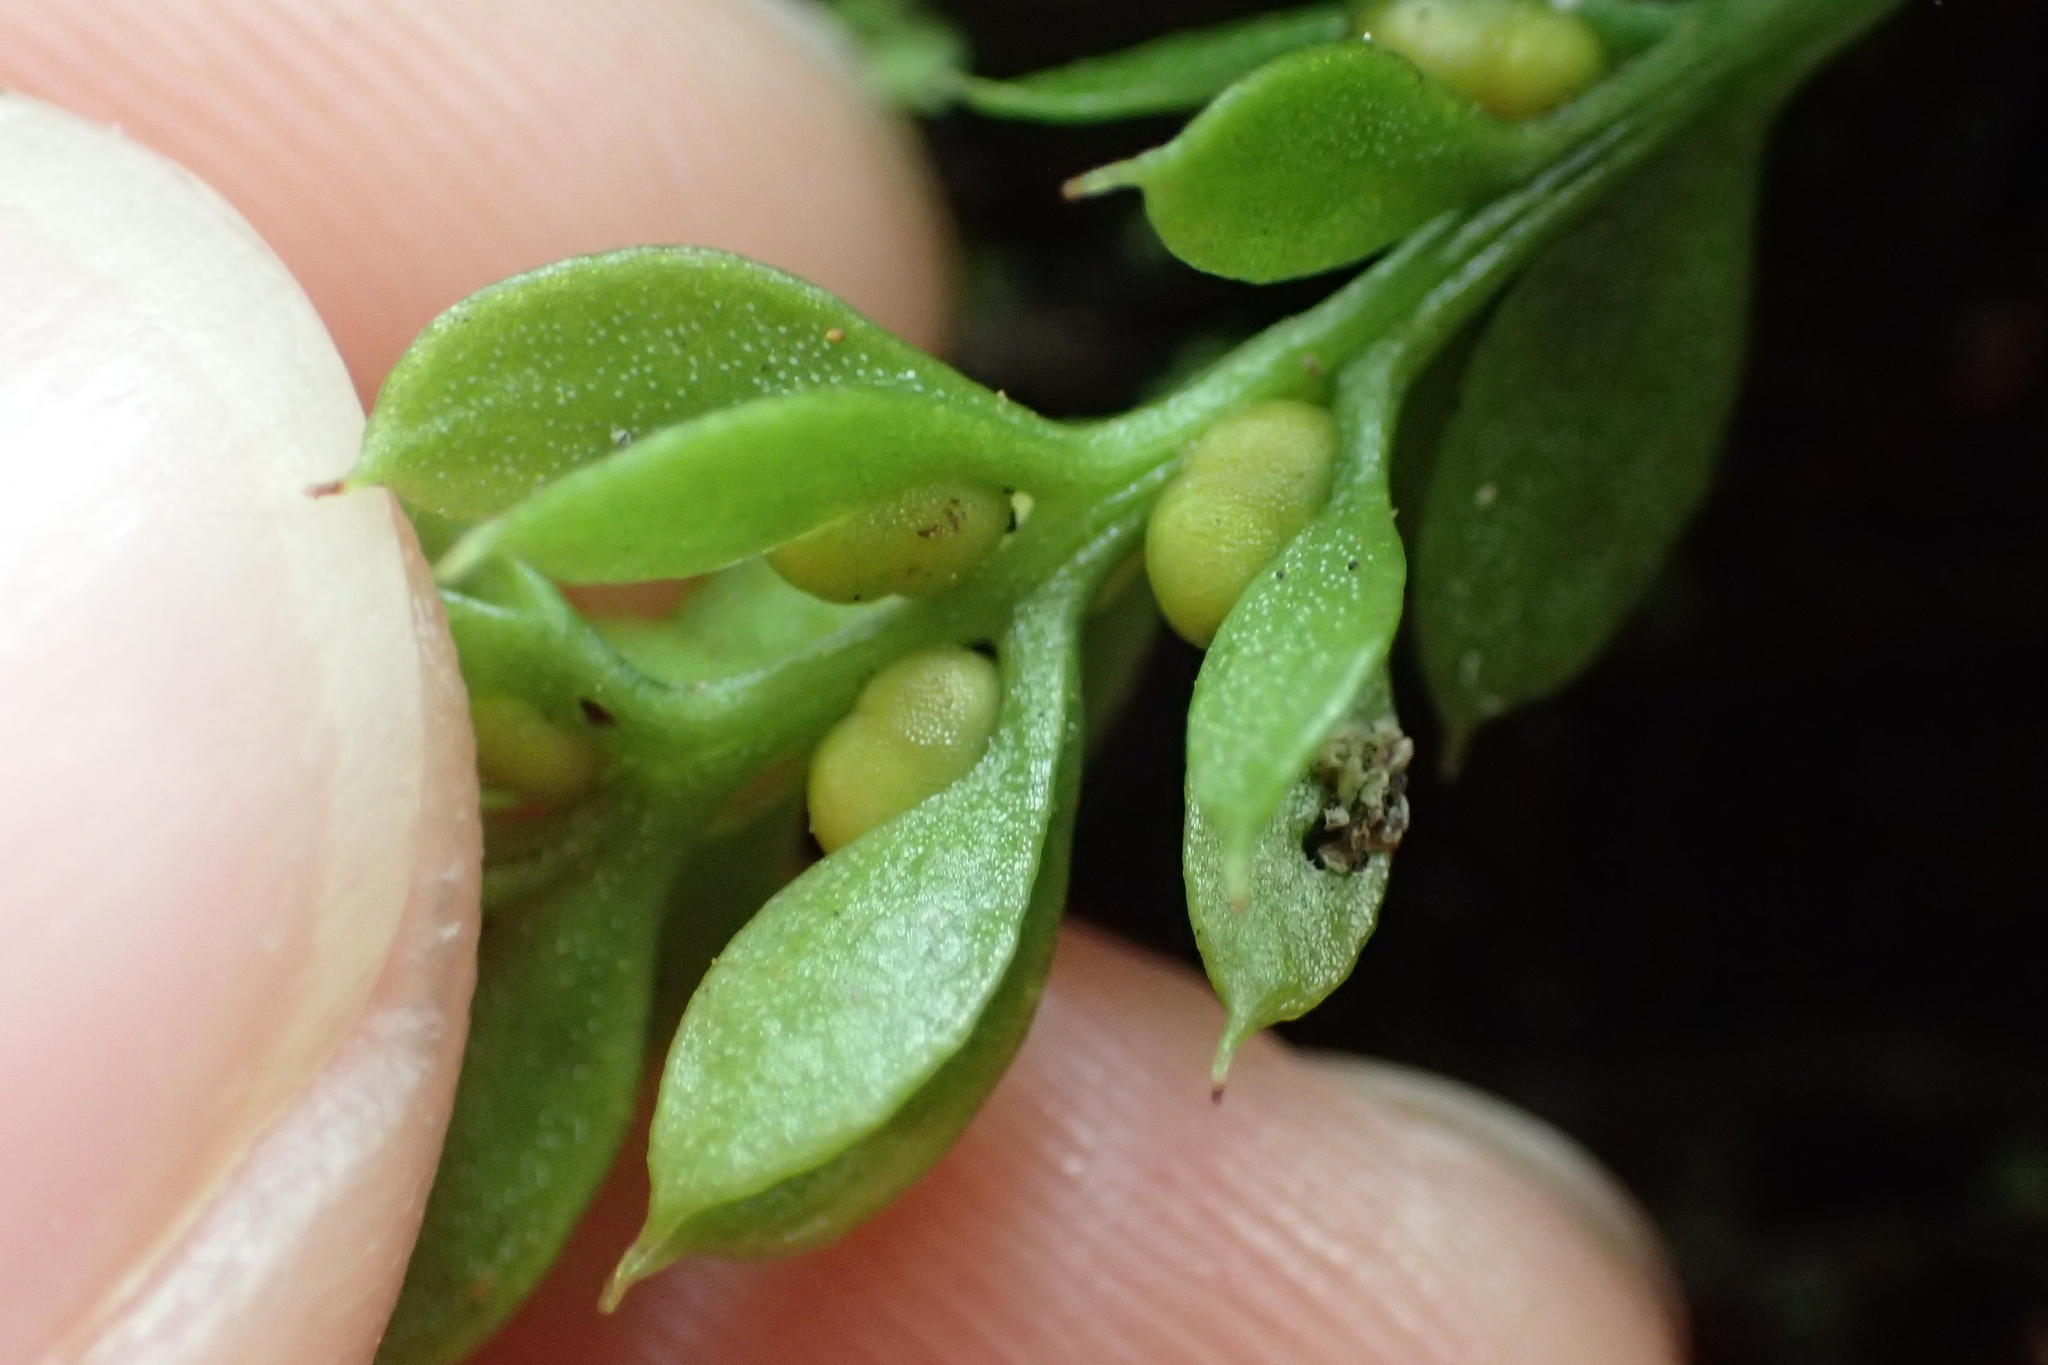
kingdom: Plantae
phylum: Tracheophyta
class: Polypodiopsida
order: Psilotales
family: Psilotaceae
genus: Tmesipteris
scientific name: Tmesipteris lanceolata
